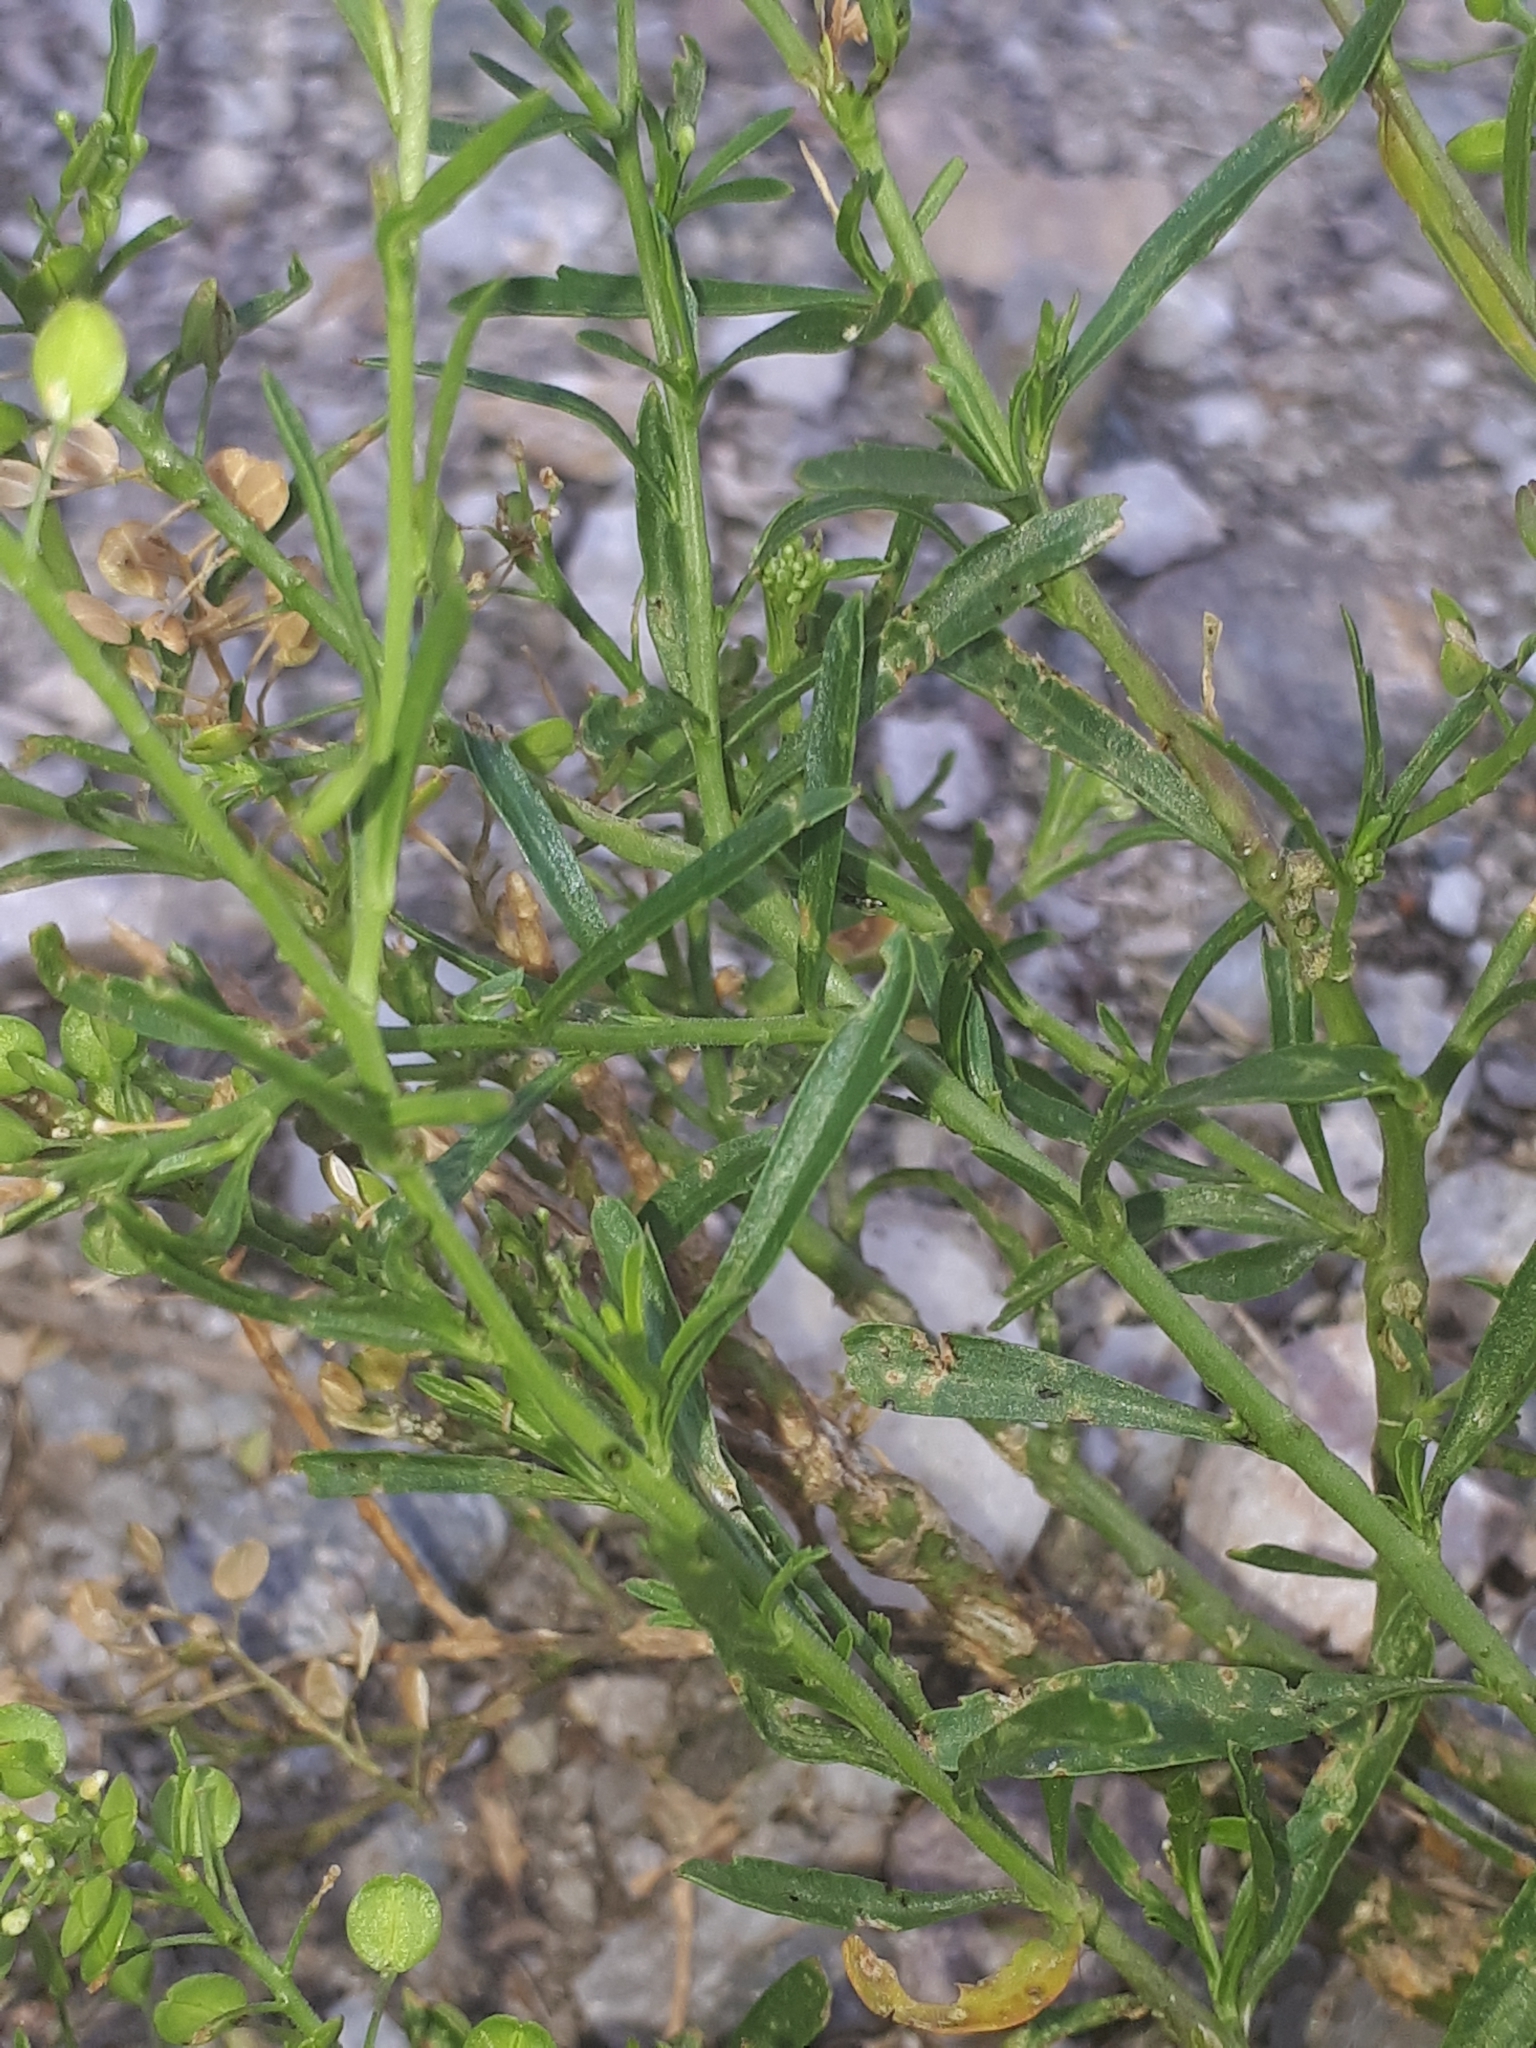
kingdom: Plantae
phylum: Tracheophyta
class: Magnoliopsida
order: Brassicales
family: Brassicaceae
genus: Lepidium
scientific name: Lepidium virginicum
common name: Least pepperwort
